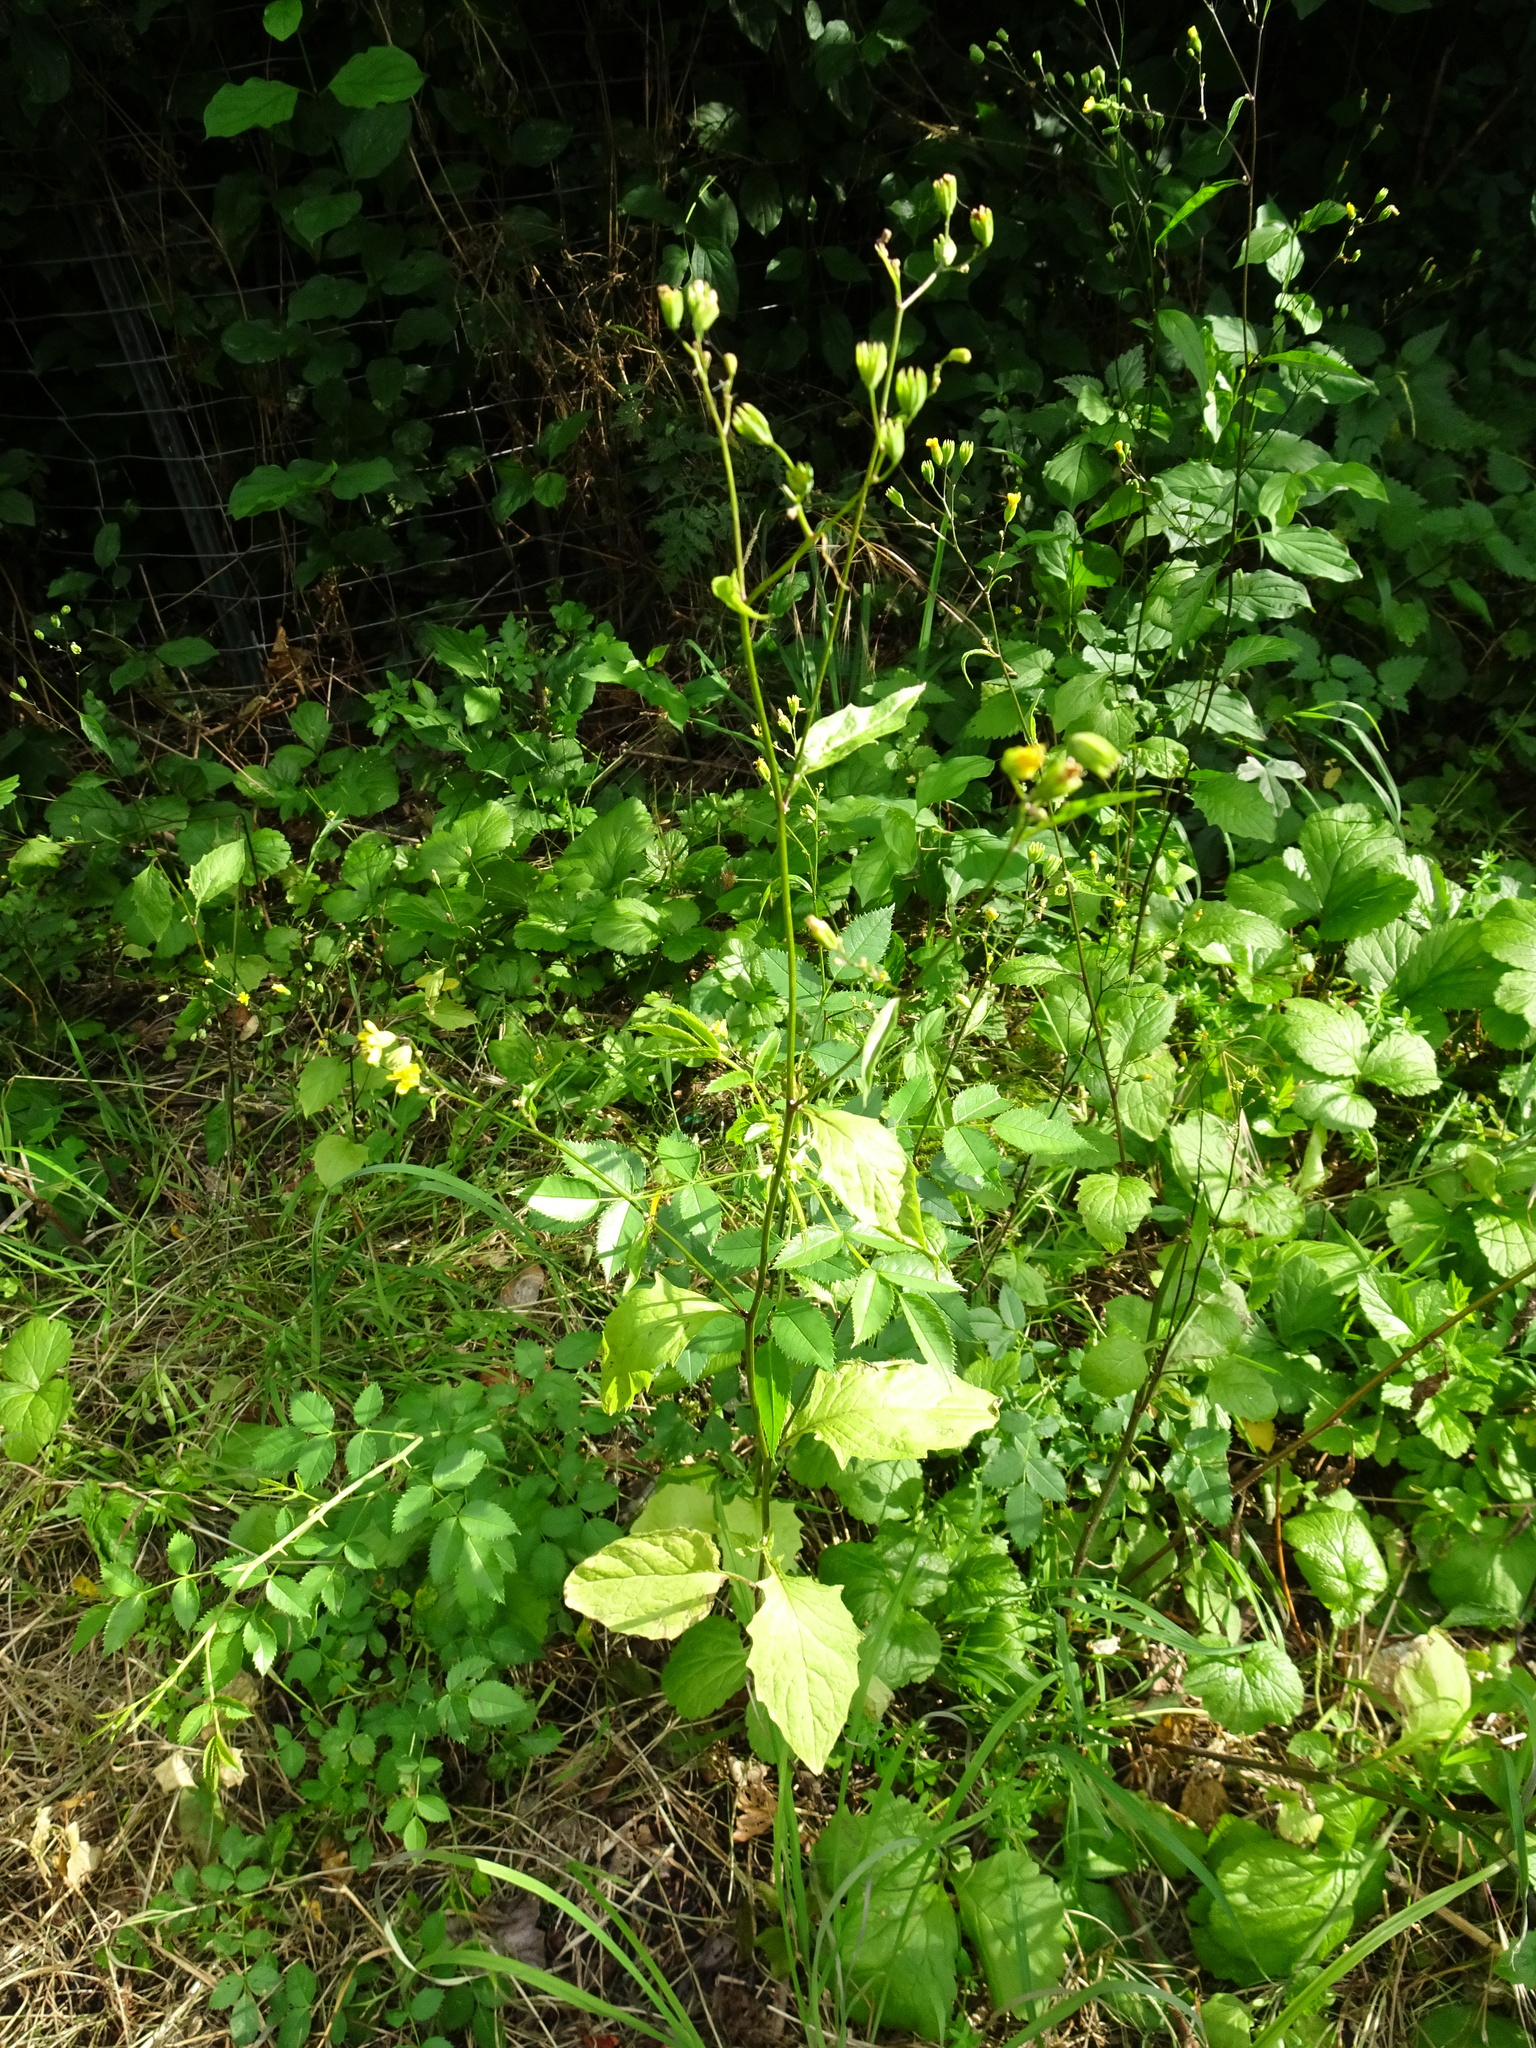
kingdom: Plantae
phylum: Tracheophyta
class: Magnoliopsida
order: Asterales
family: Asteraceae
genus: Lapsana
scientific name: Lapsana communis
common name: Nipplewort
